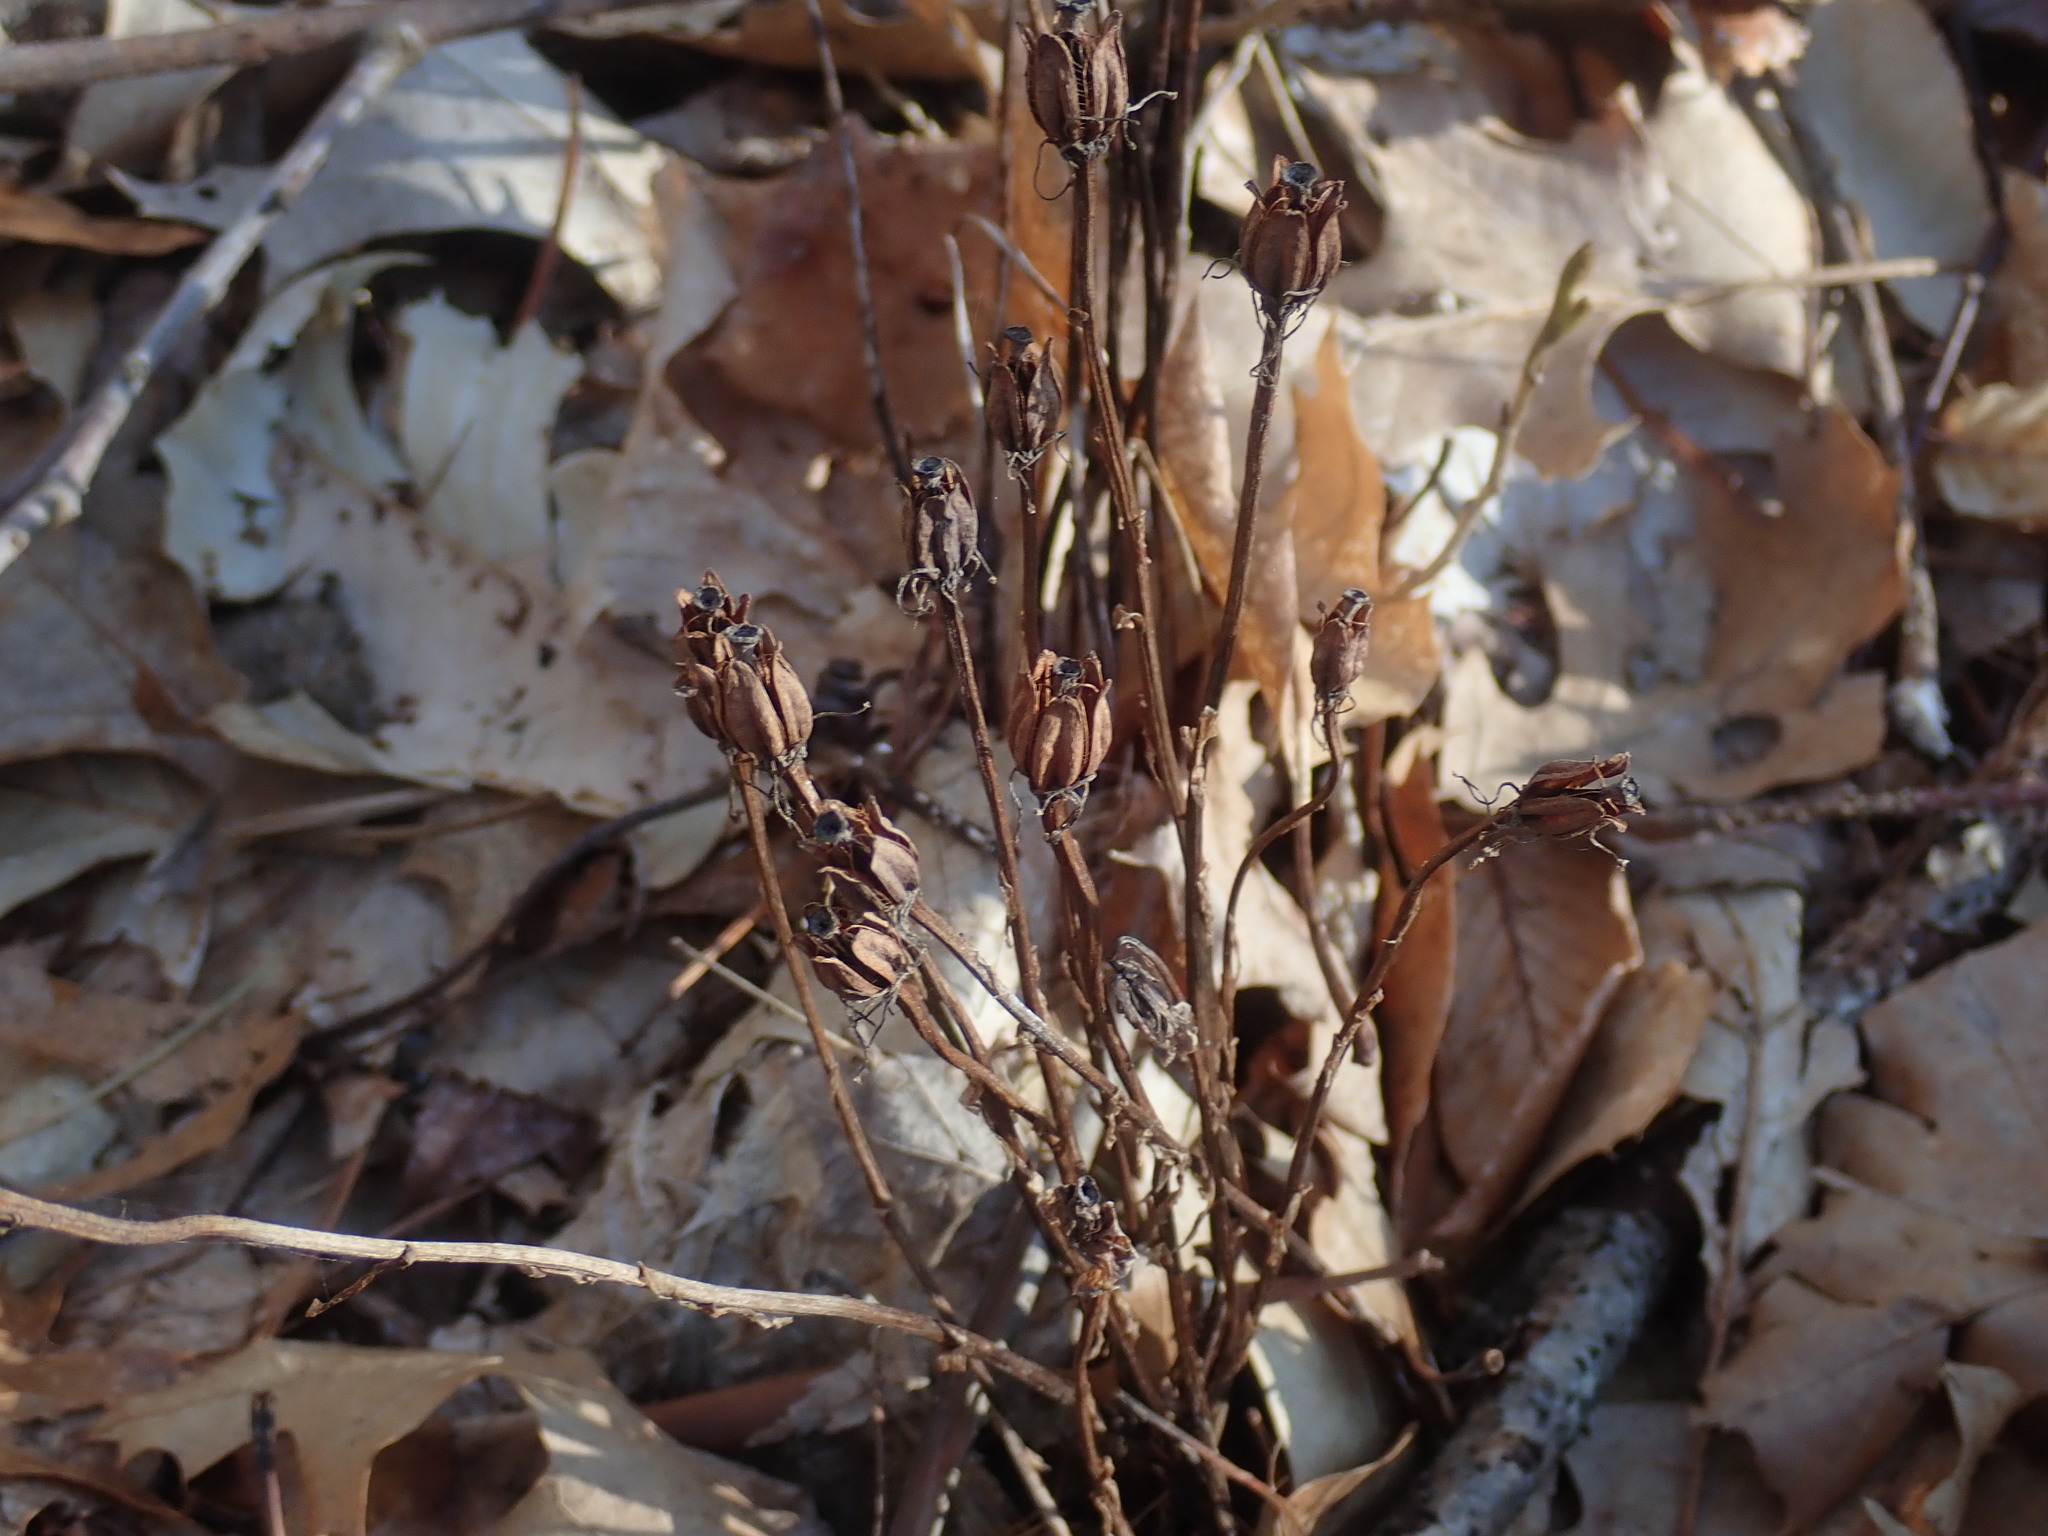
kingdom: Plantae
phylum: Tracheophyta
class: Magnoliopsida
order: Ericales
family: Ericaceae
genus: Monotropa
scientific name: Monotropa uniflora
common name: Convulsion root
